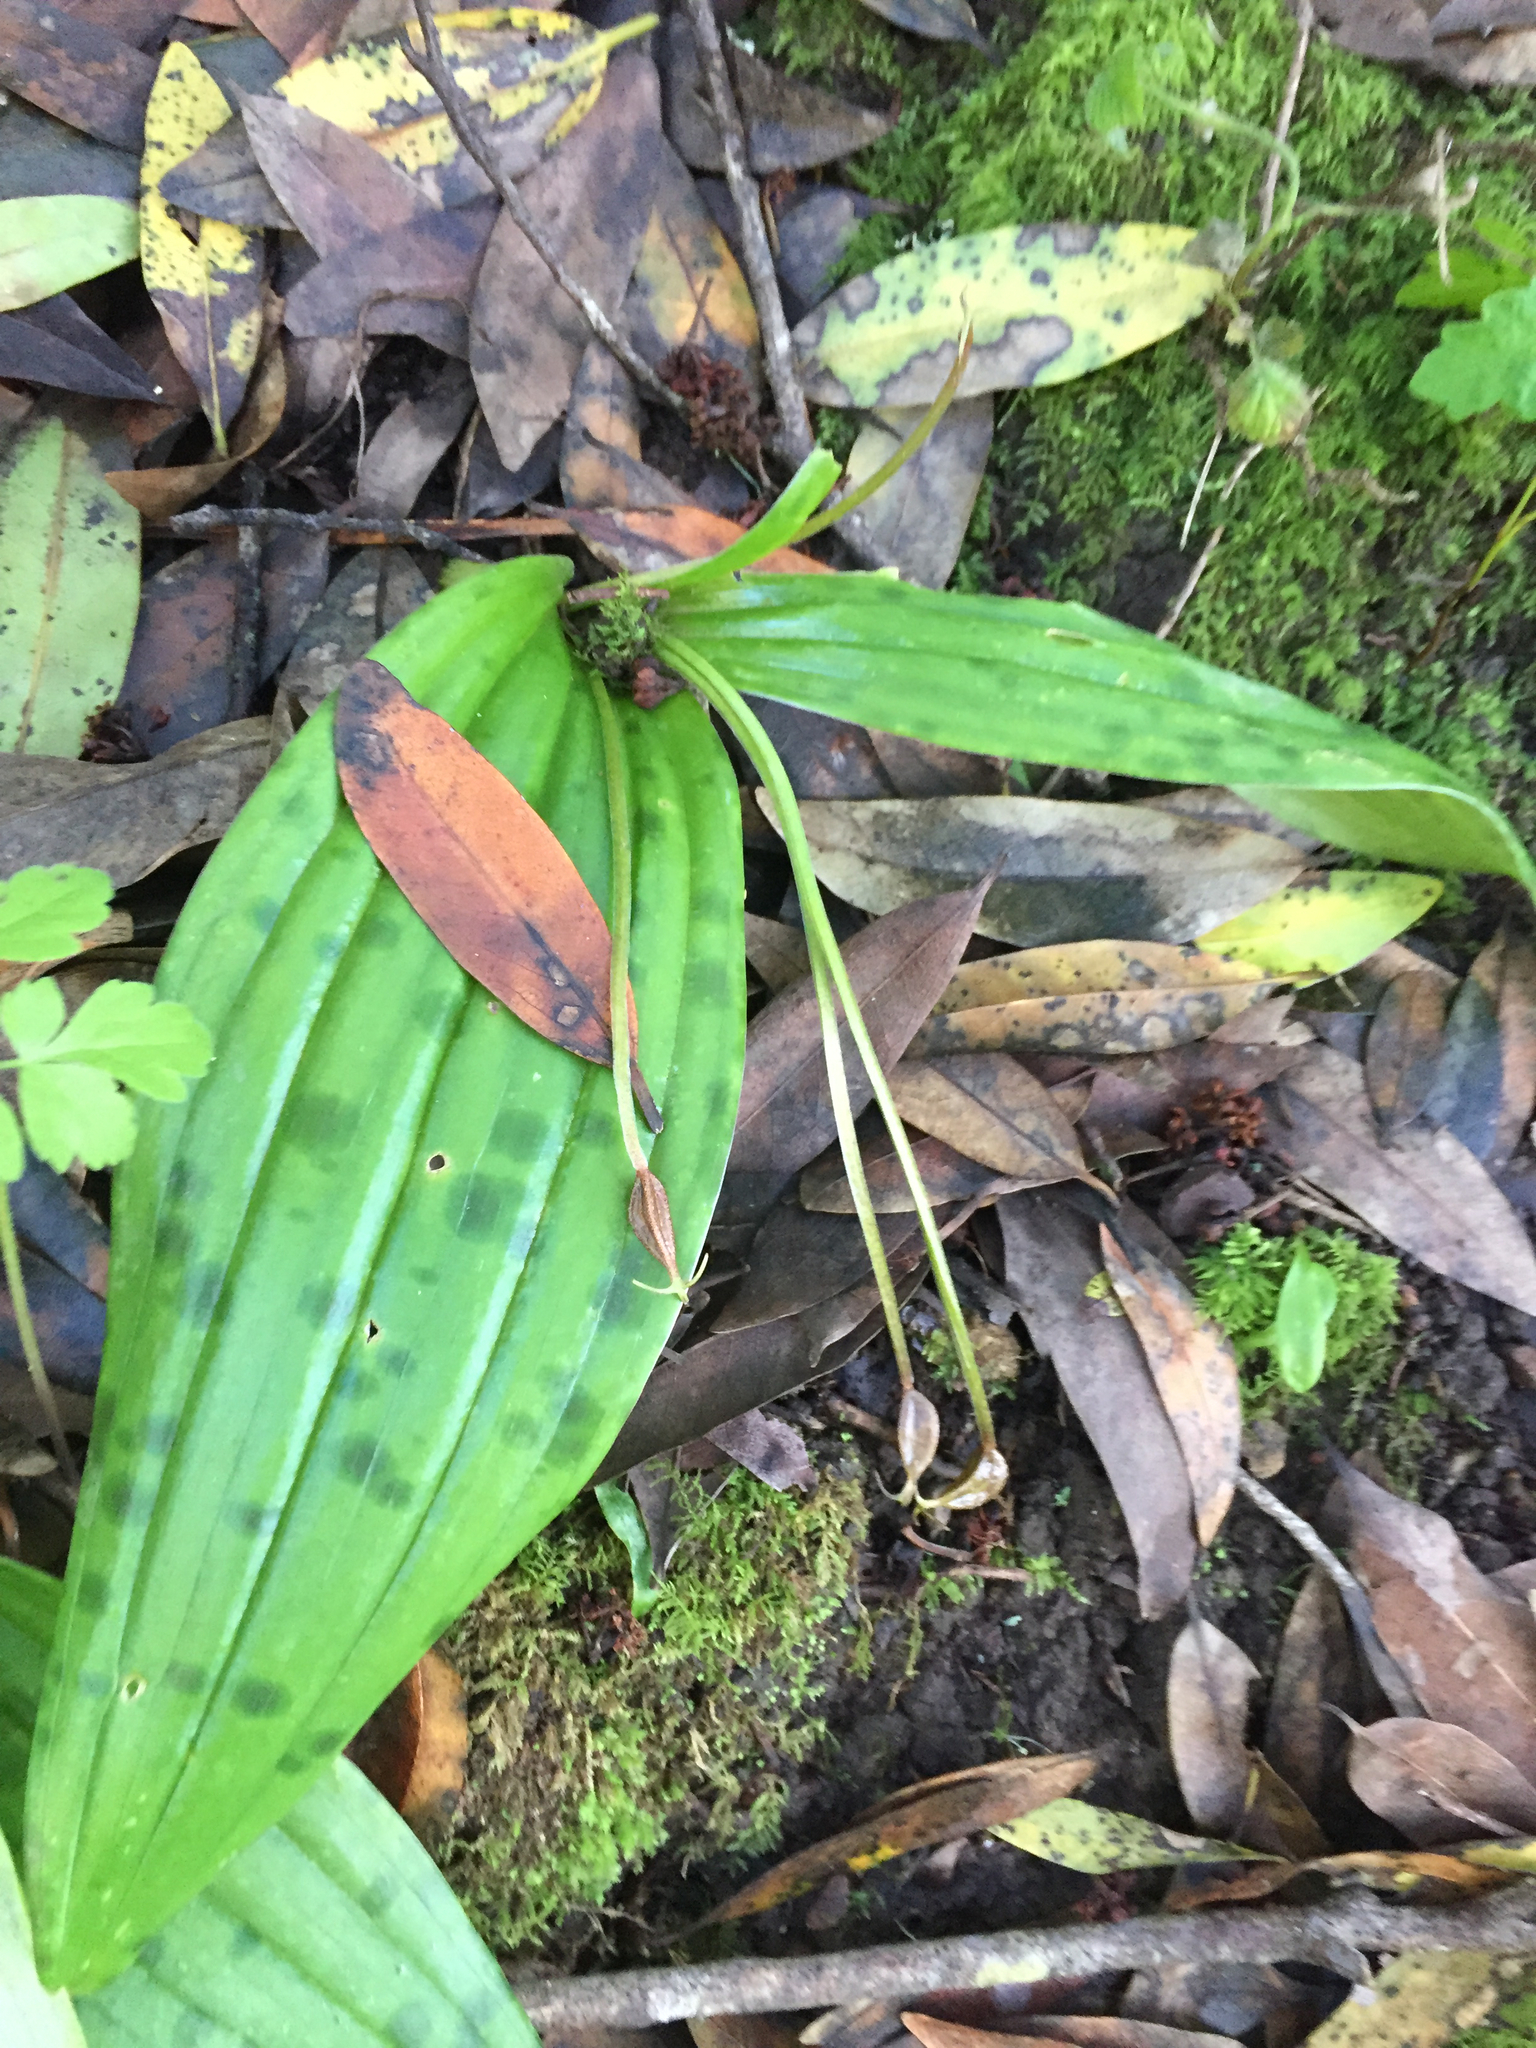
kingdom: Plantae
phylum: Tracheophyta
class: Liliopsida
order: Liliales
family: Liliaceae
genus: Scoliopus
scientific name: Scoliopus bigelovii
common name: Foetid adder's-tongue
